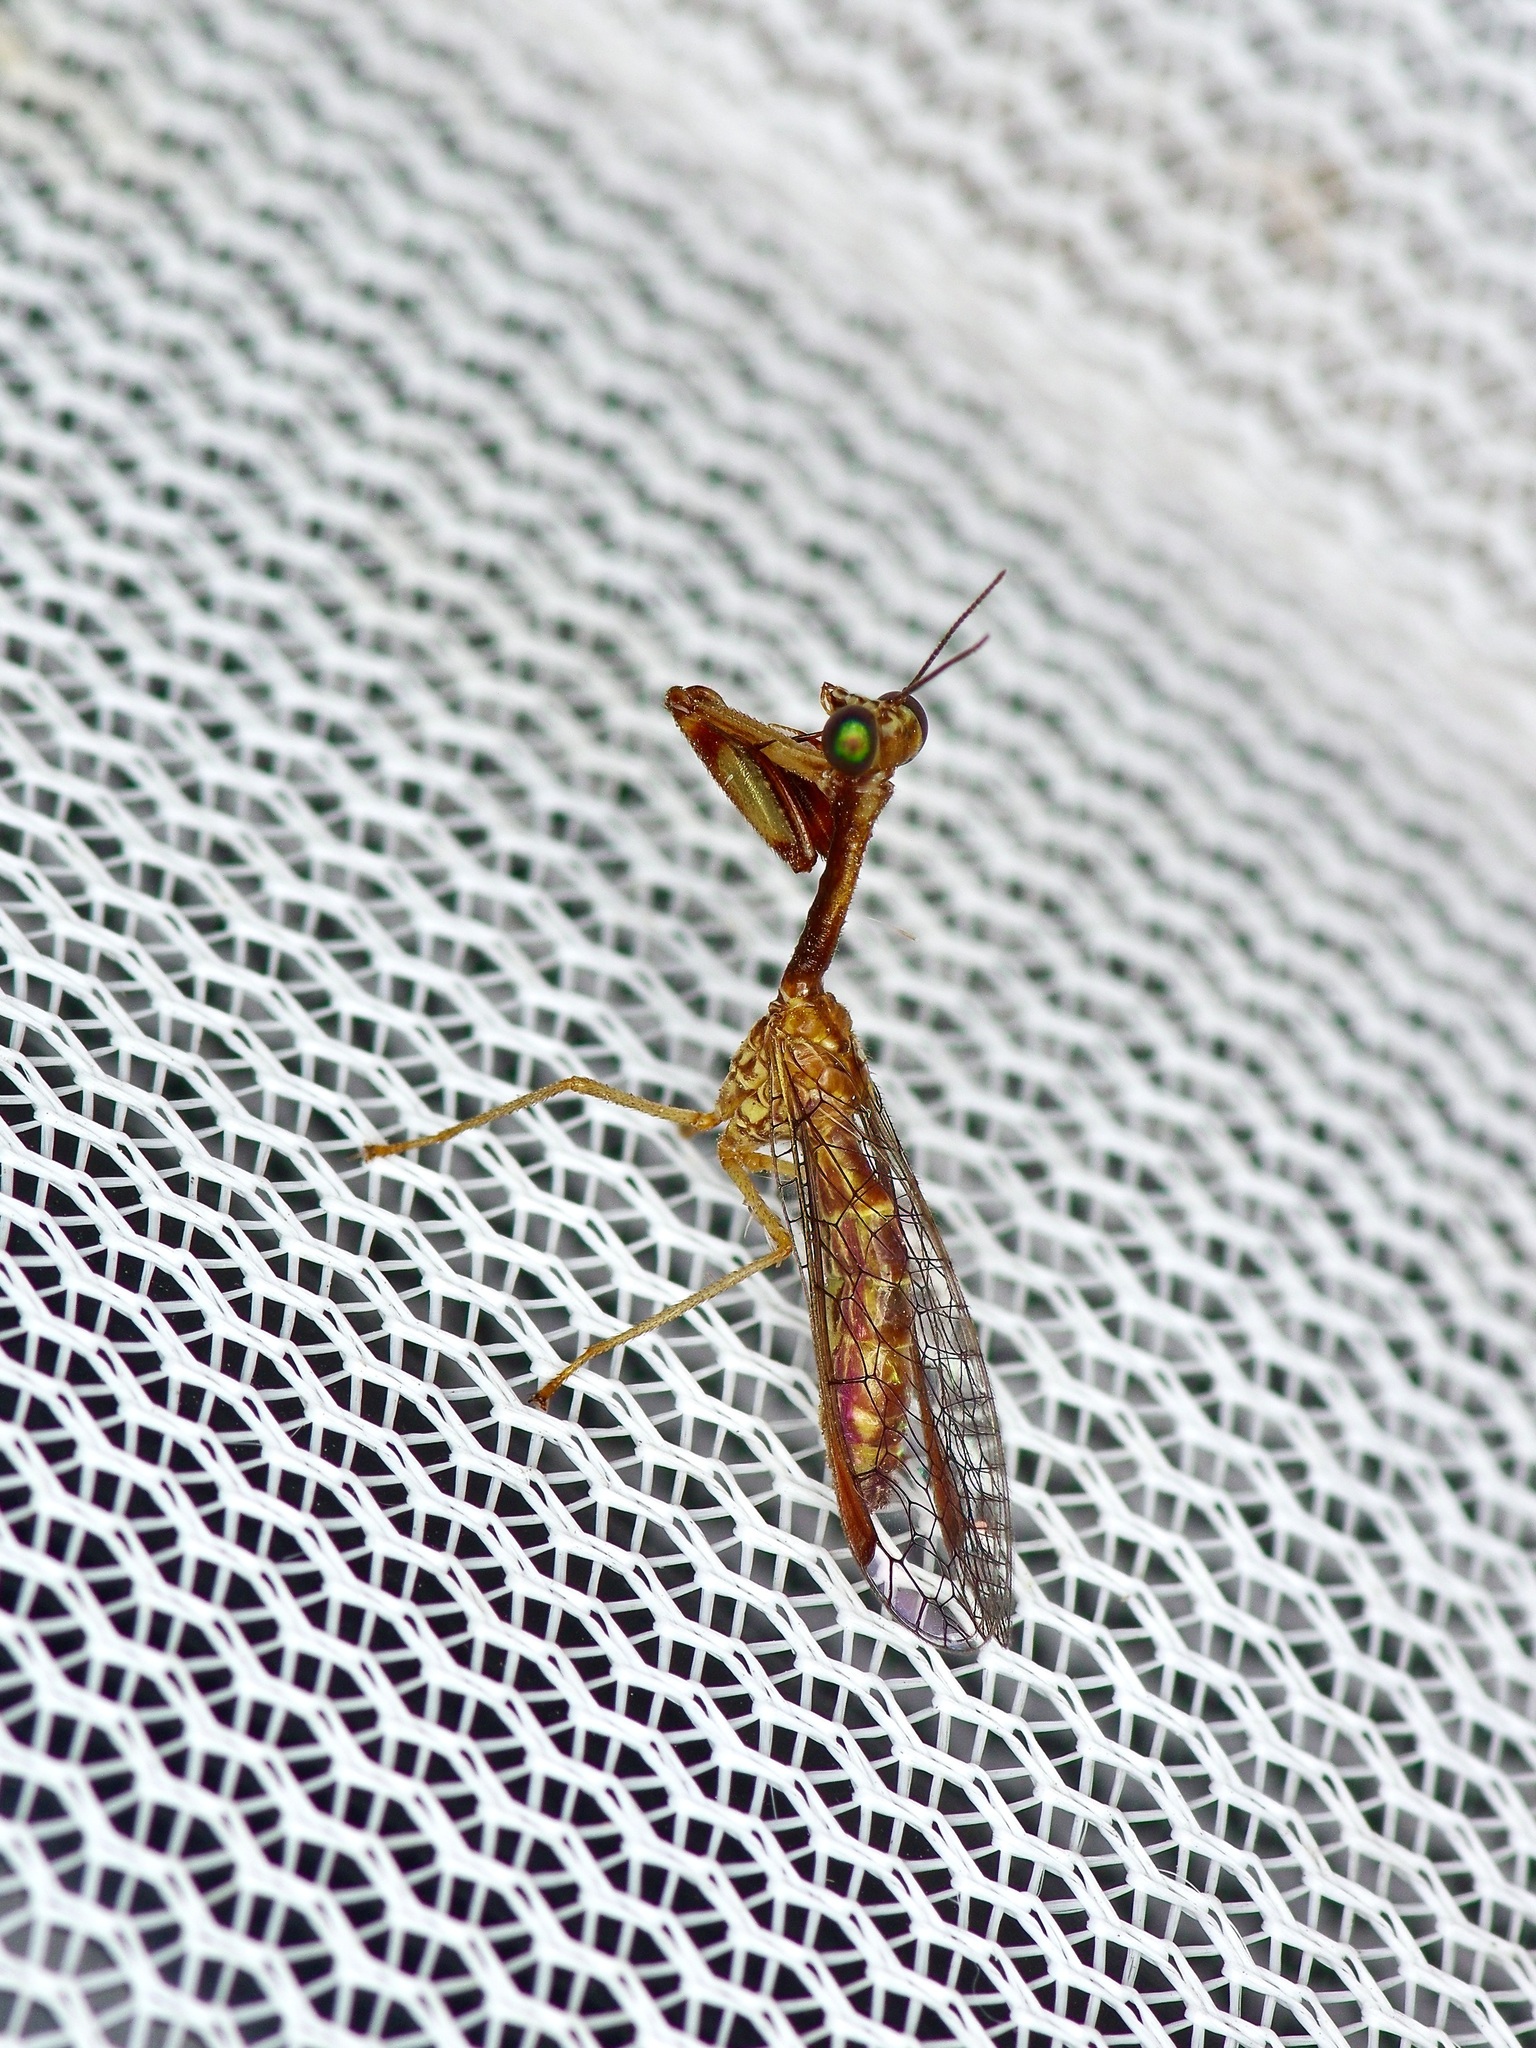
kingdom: Animalia
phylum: Arthropoda
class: Insecta
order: Neuroptera
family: Mantispidae
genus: Leptomantispa
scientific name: Leptomantispa pulchella
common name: Stevens's mantidfly
